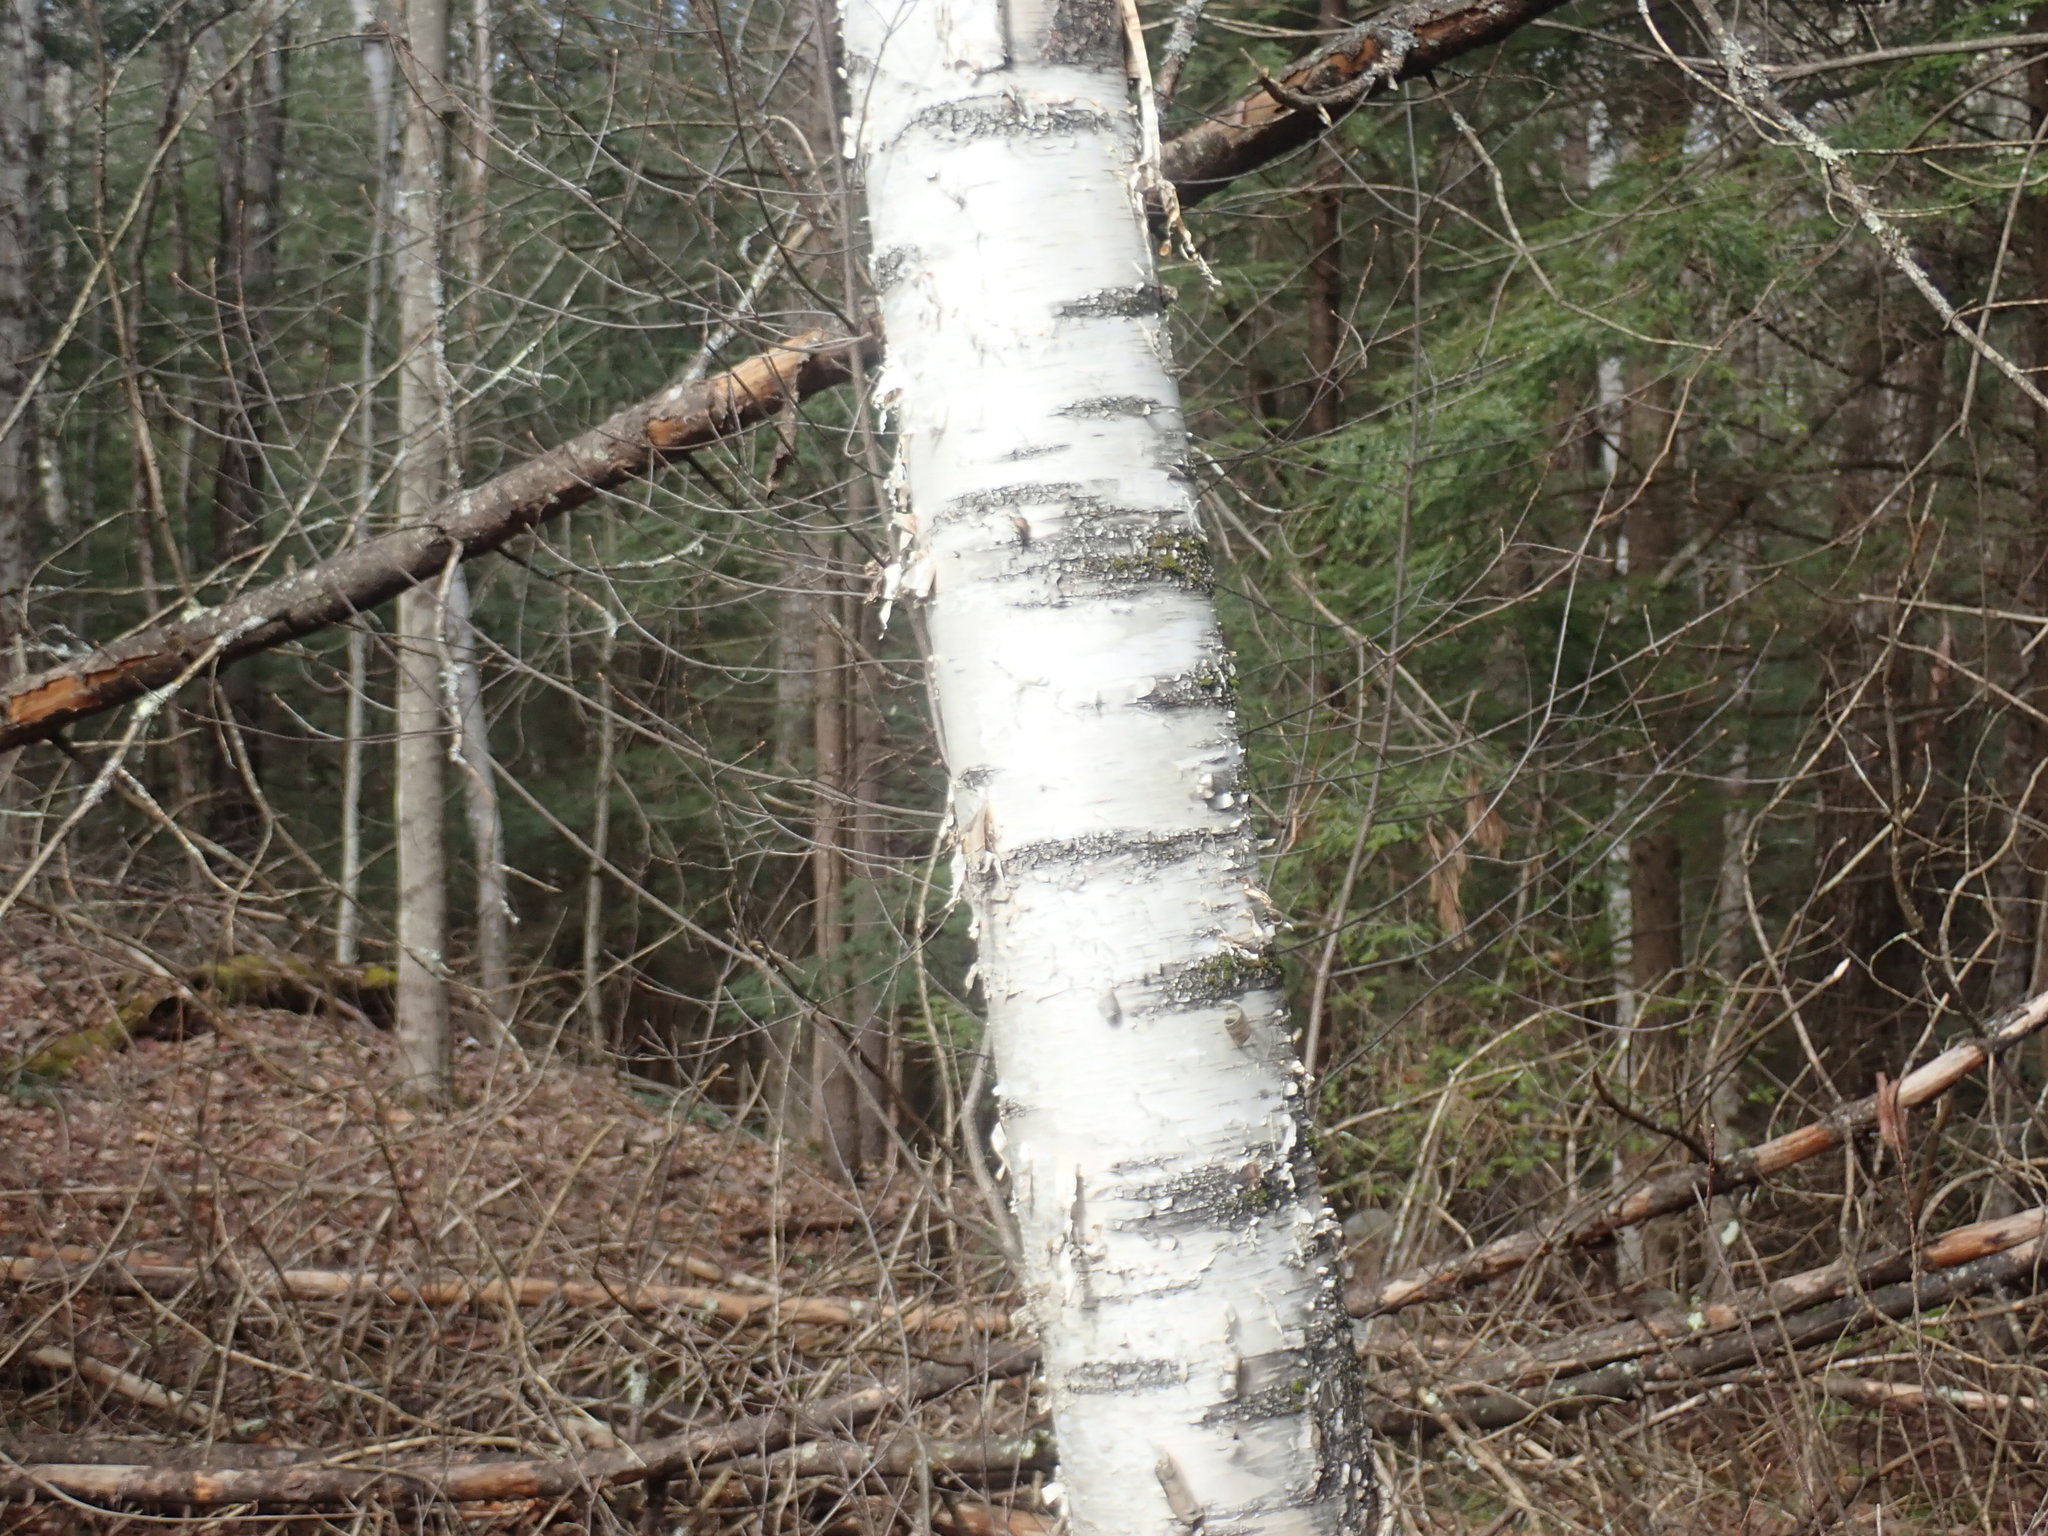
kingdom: Plantae
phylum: Tracheophyta
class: Magnoliopsida
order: Fagales
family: Betulaceae
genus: Betula
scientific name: Betula papyrifera
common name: Paper birch
